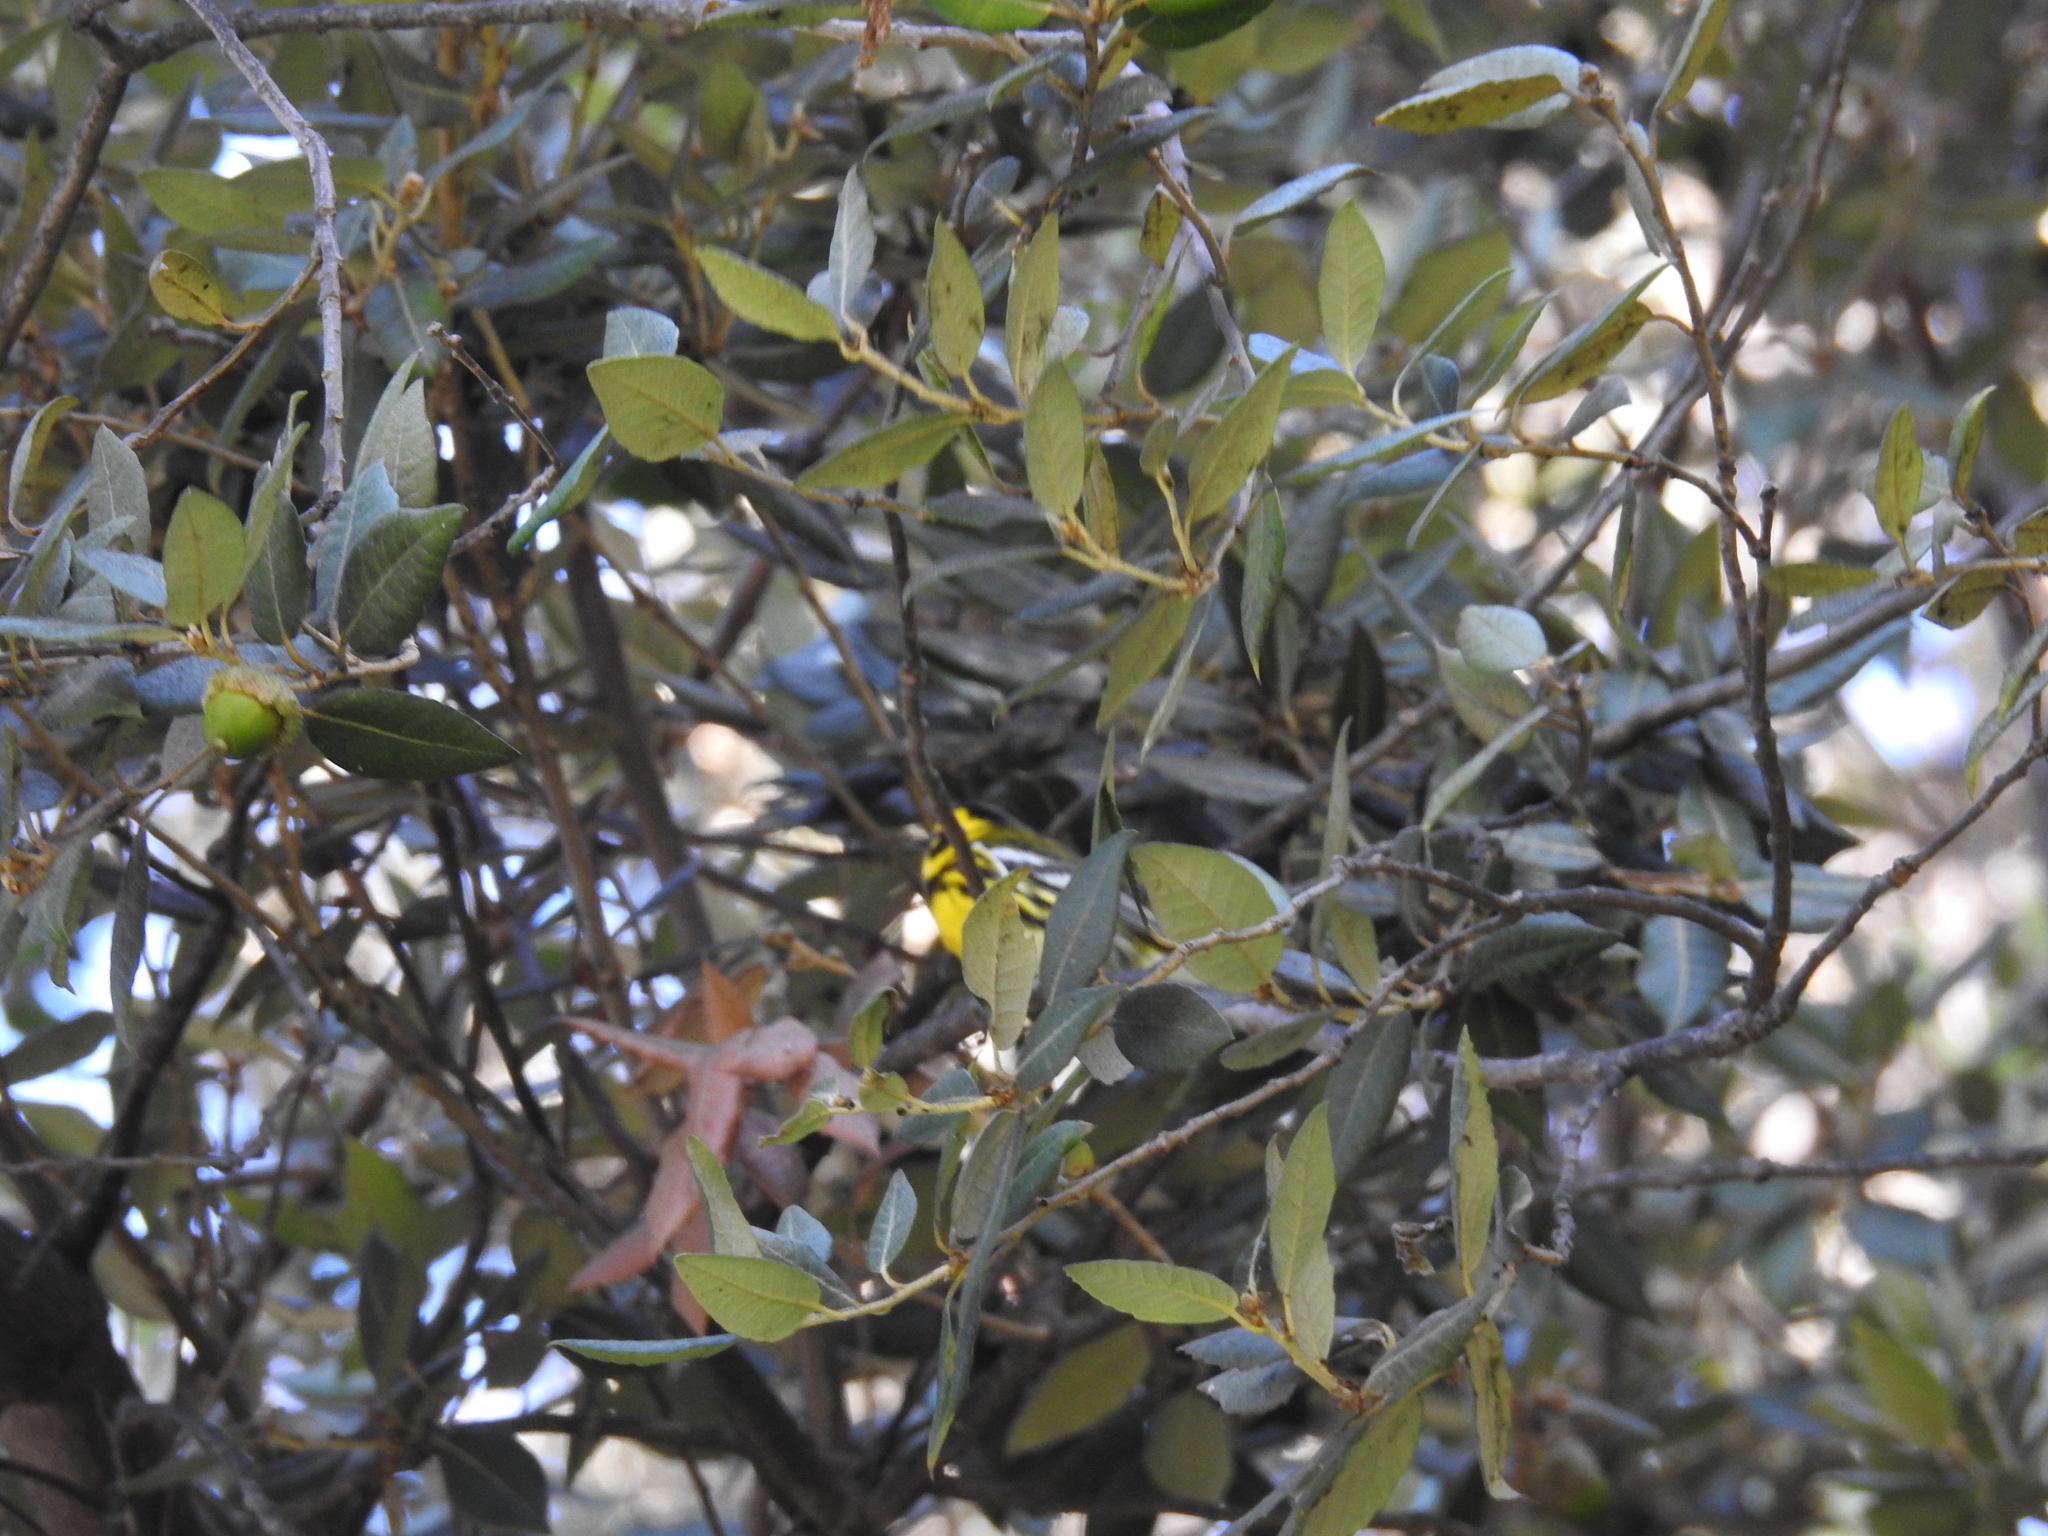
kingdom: Animalia
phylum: Chordata
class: Aves
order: Passeriformes
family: Parulidae
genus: Setophaga
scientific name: Setophaga townsendi
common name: Townsend's warbler
